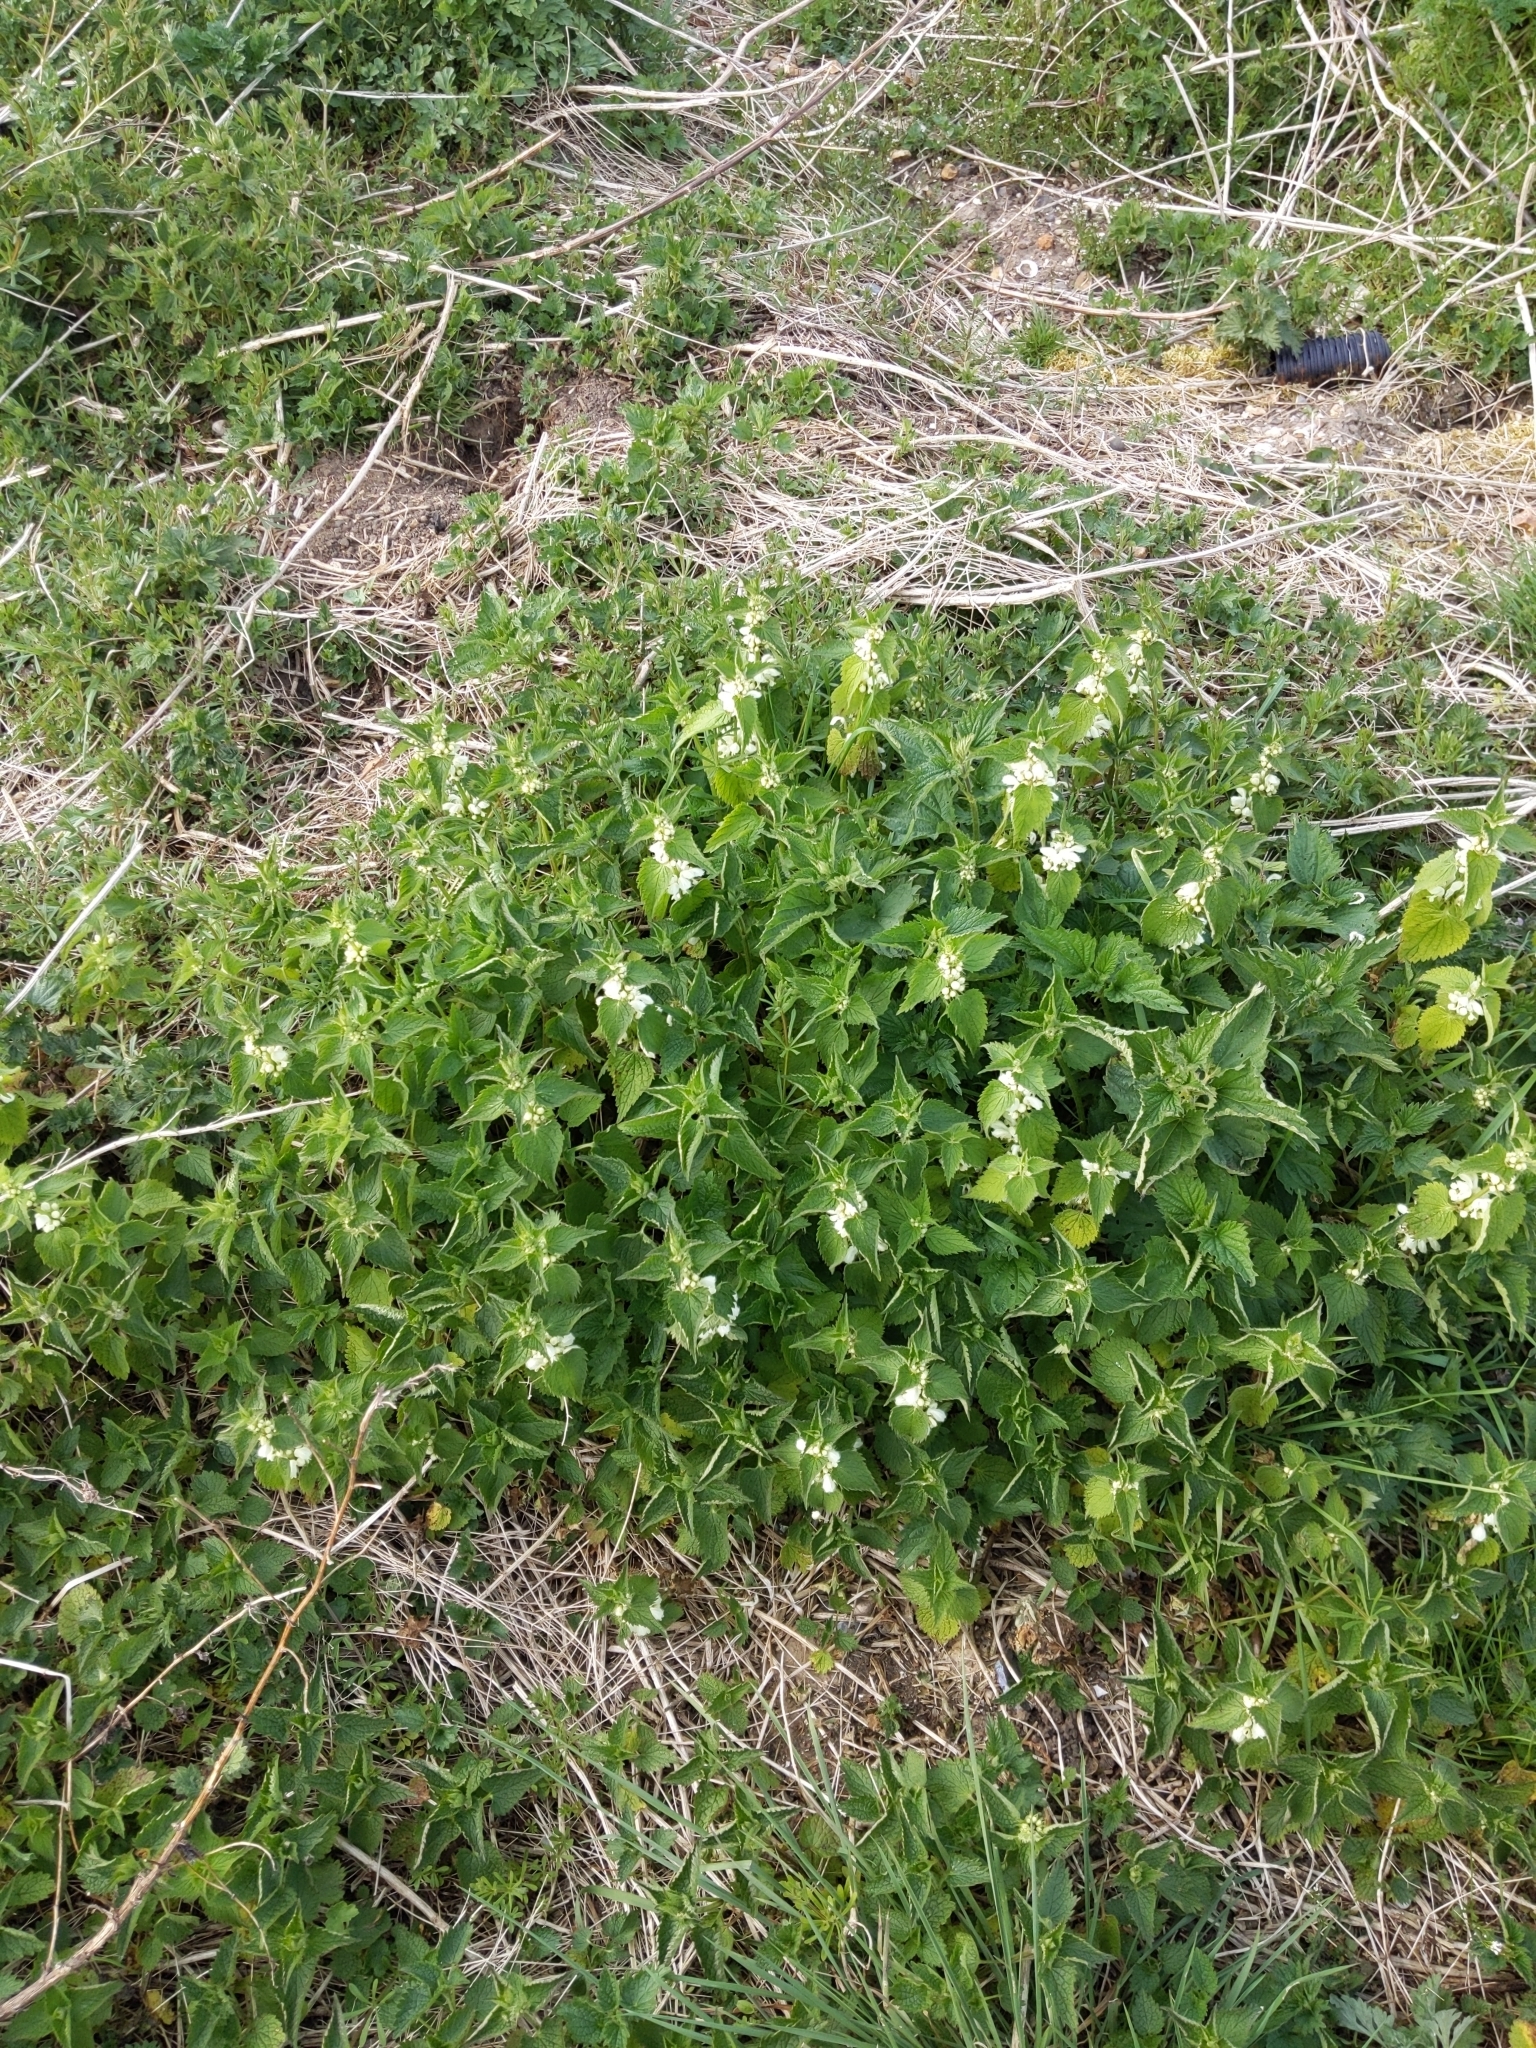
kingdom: Plantae
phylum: Tracheophyta
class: Magnoliopsida
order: Lamiales
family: Lamiaceae
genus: Lamium
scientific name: Lamium album
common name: White dead-nettle
